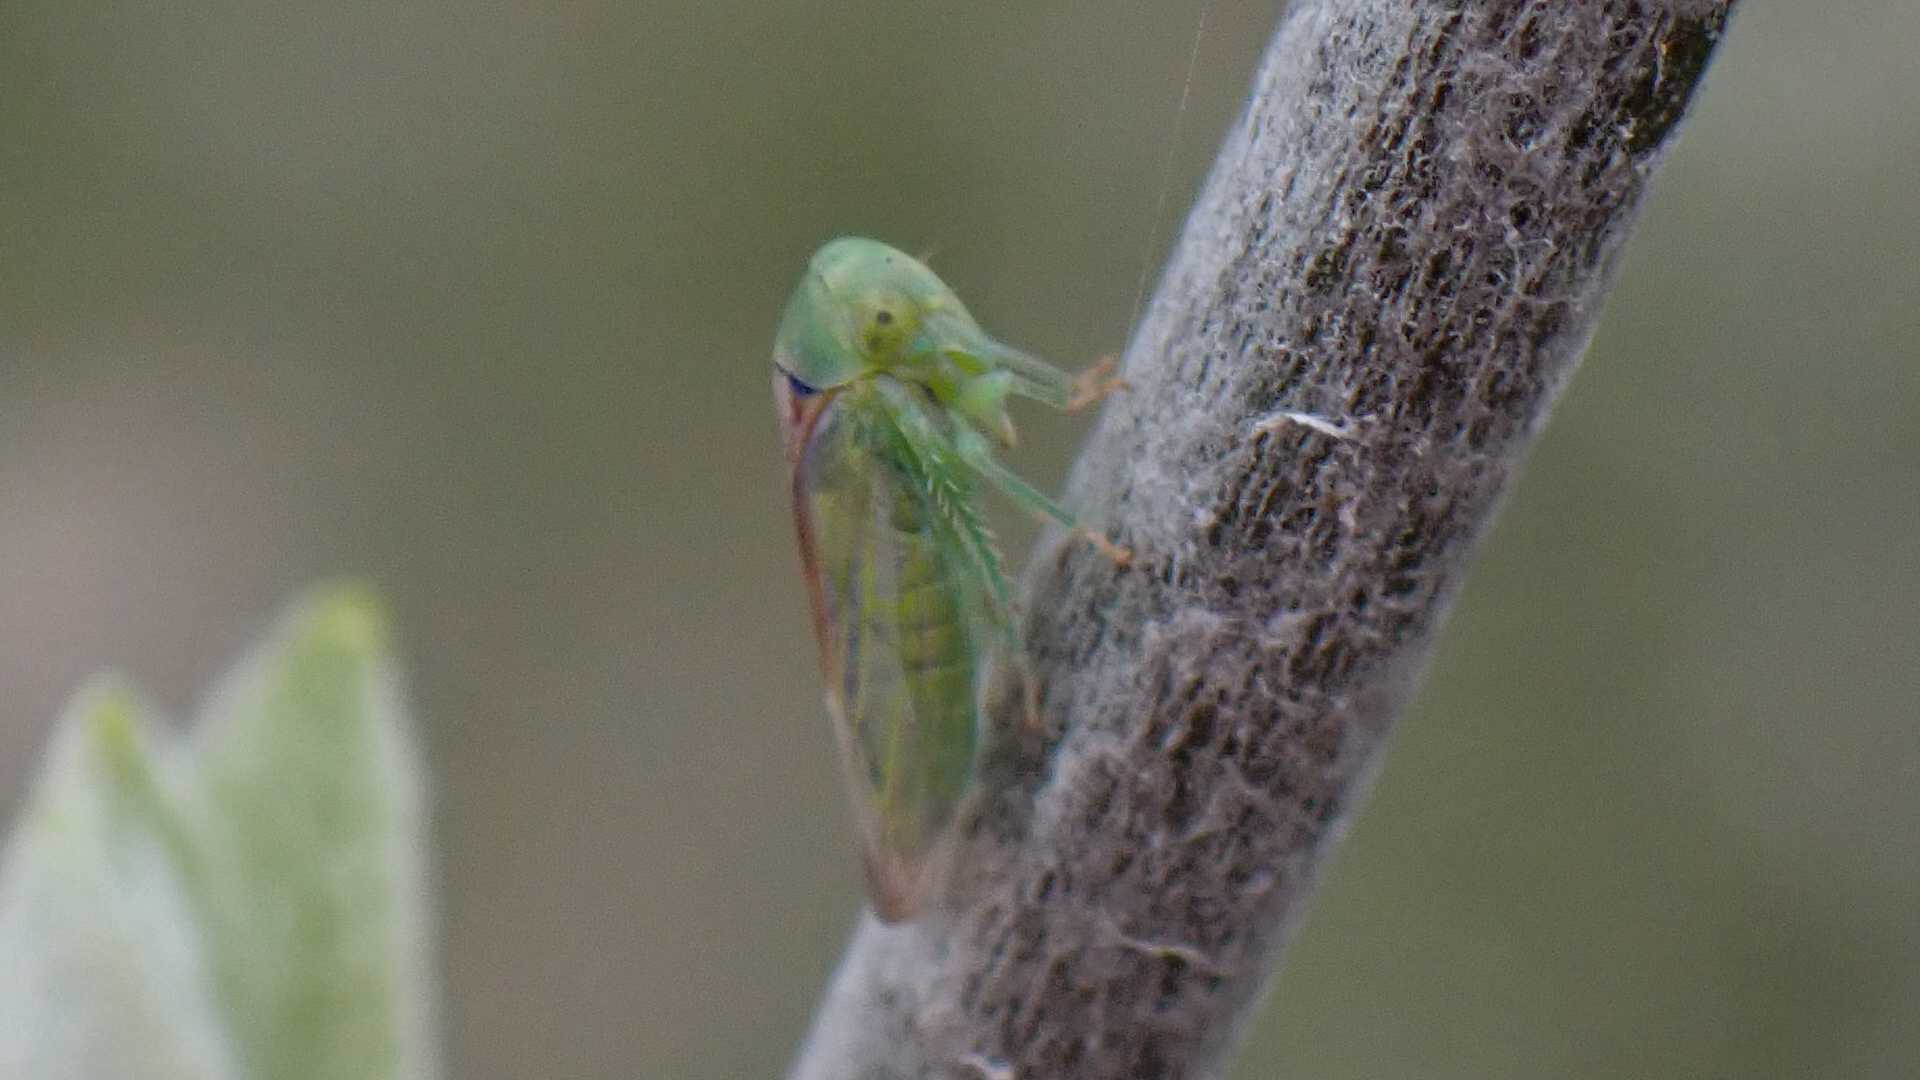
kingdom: Animalia
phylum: Arthropoda
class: Insecta
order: Hemiptera
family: Cicadellidae
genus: Viridicerus
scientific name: Viridicerus ustulatus
